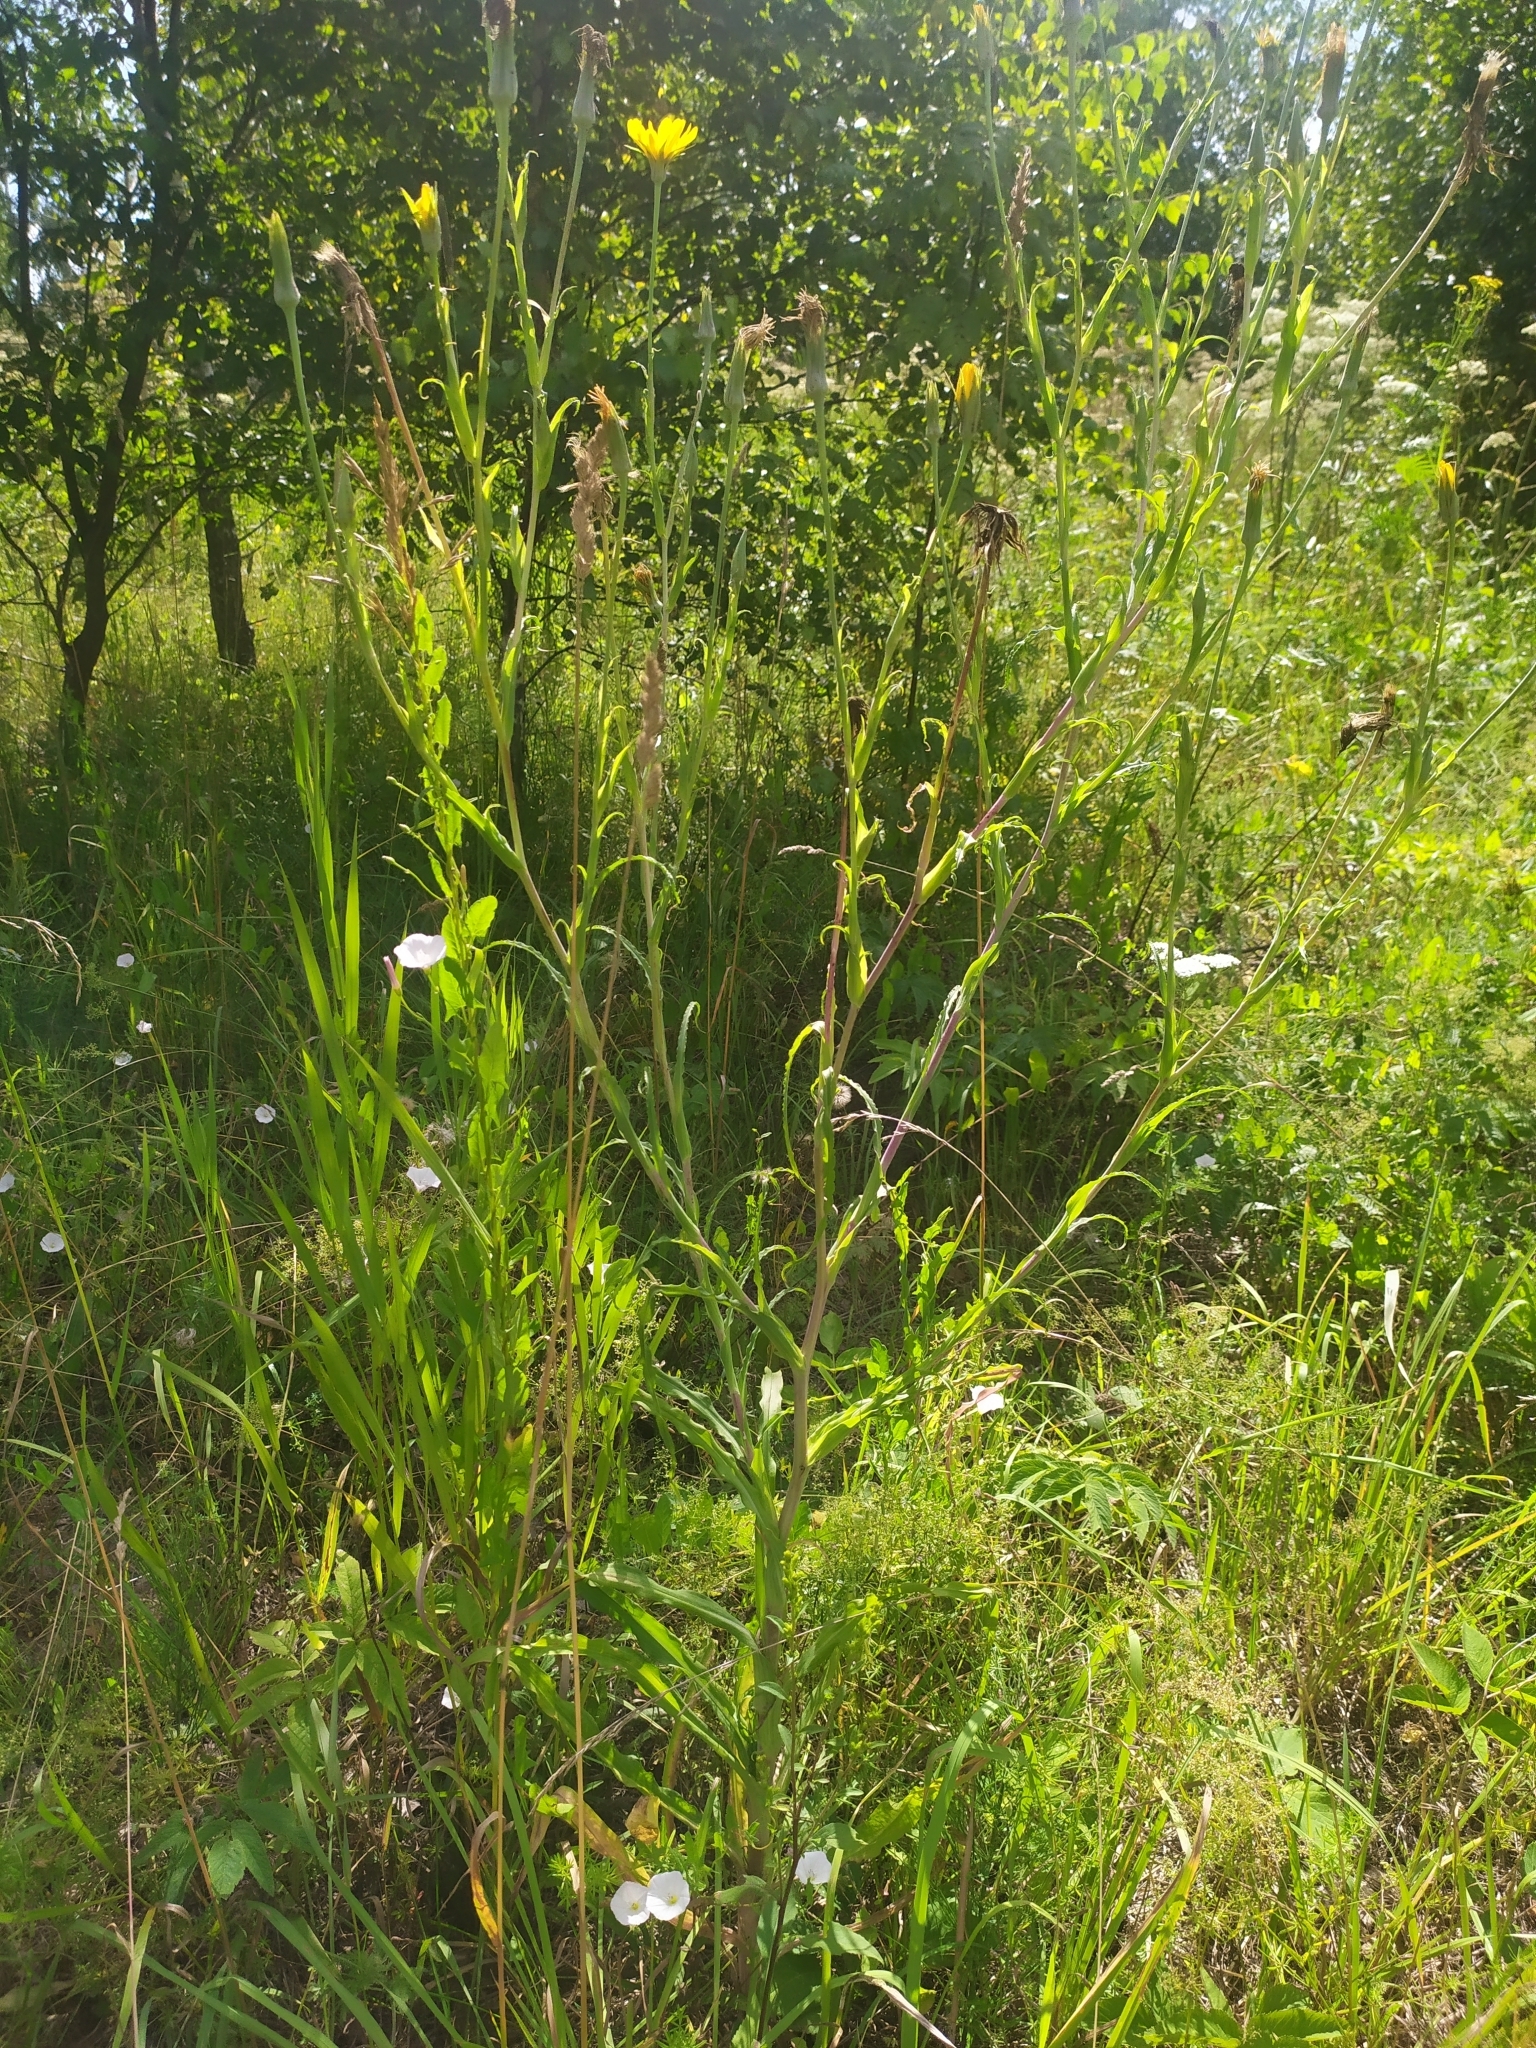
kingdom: Plantae
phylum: Tracheophyta
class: Magnoliopsida
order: Asterales
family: Asteraceae
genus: Tragopogon
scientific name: Tragopogon orientalis
